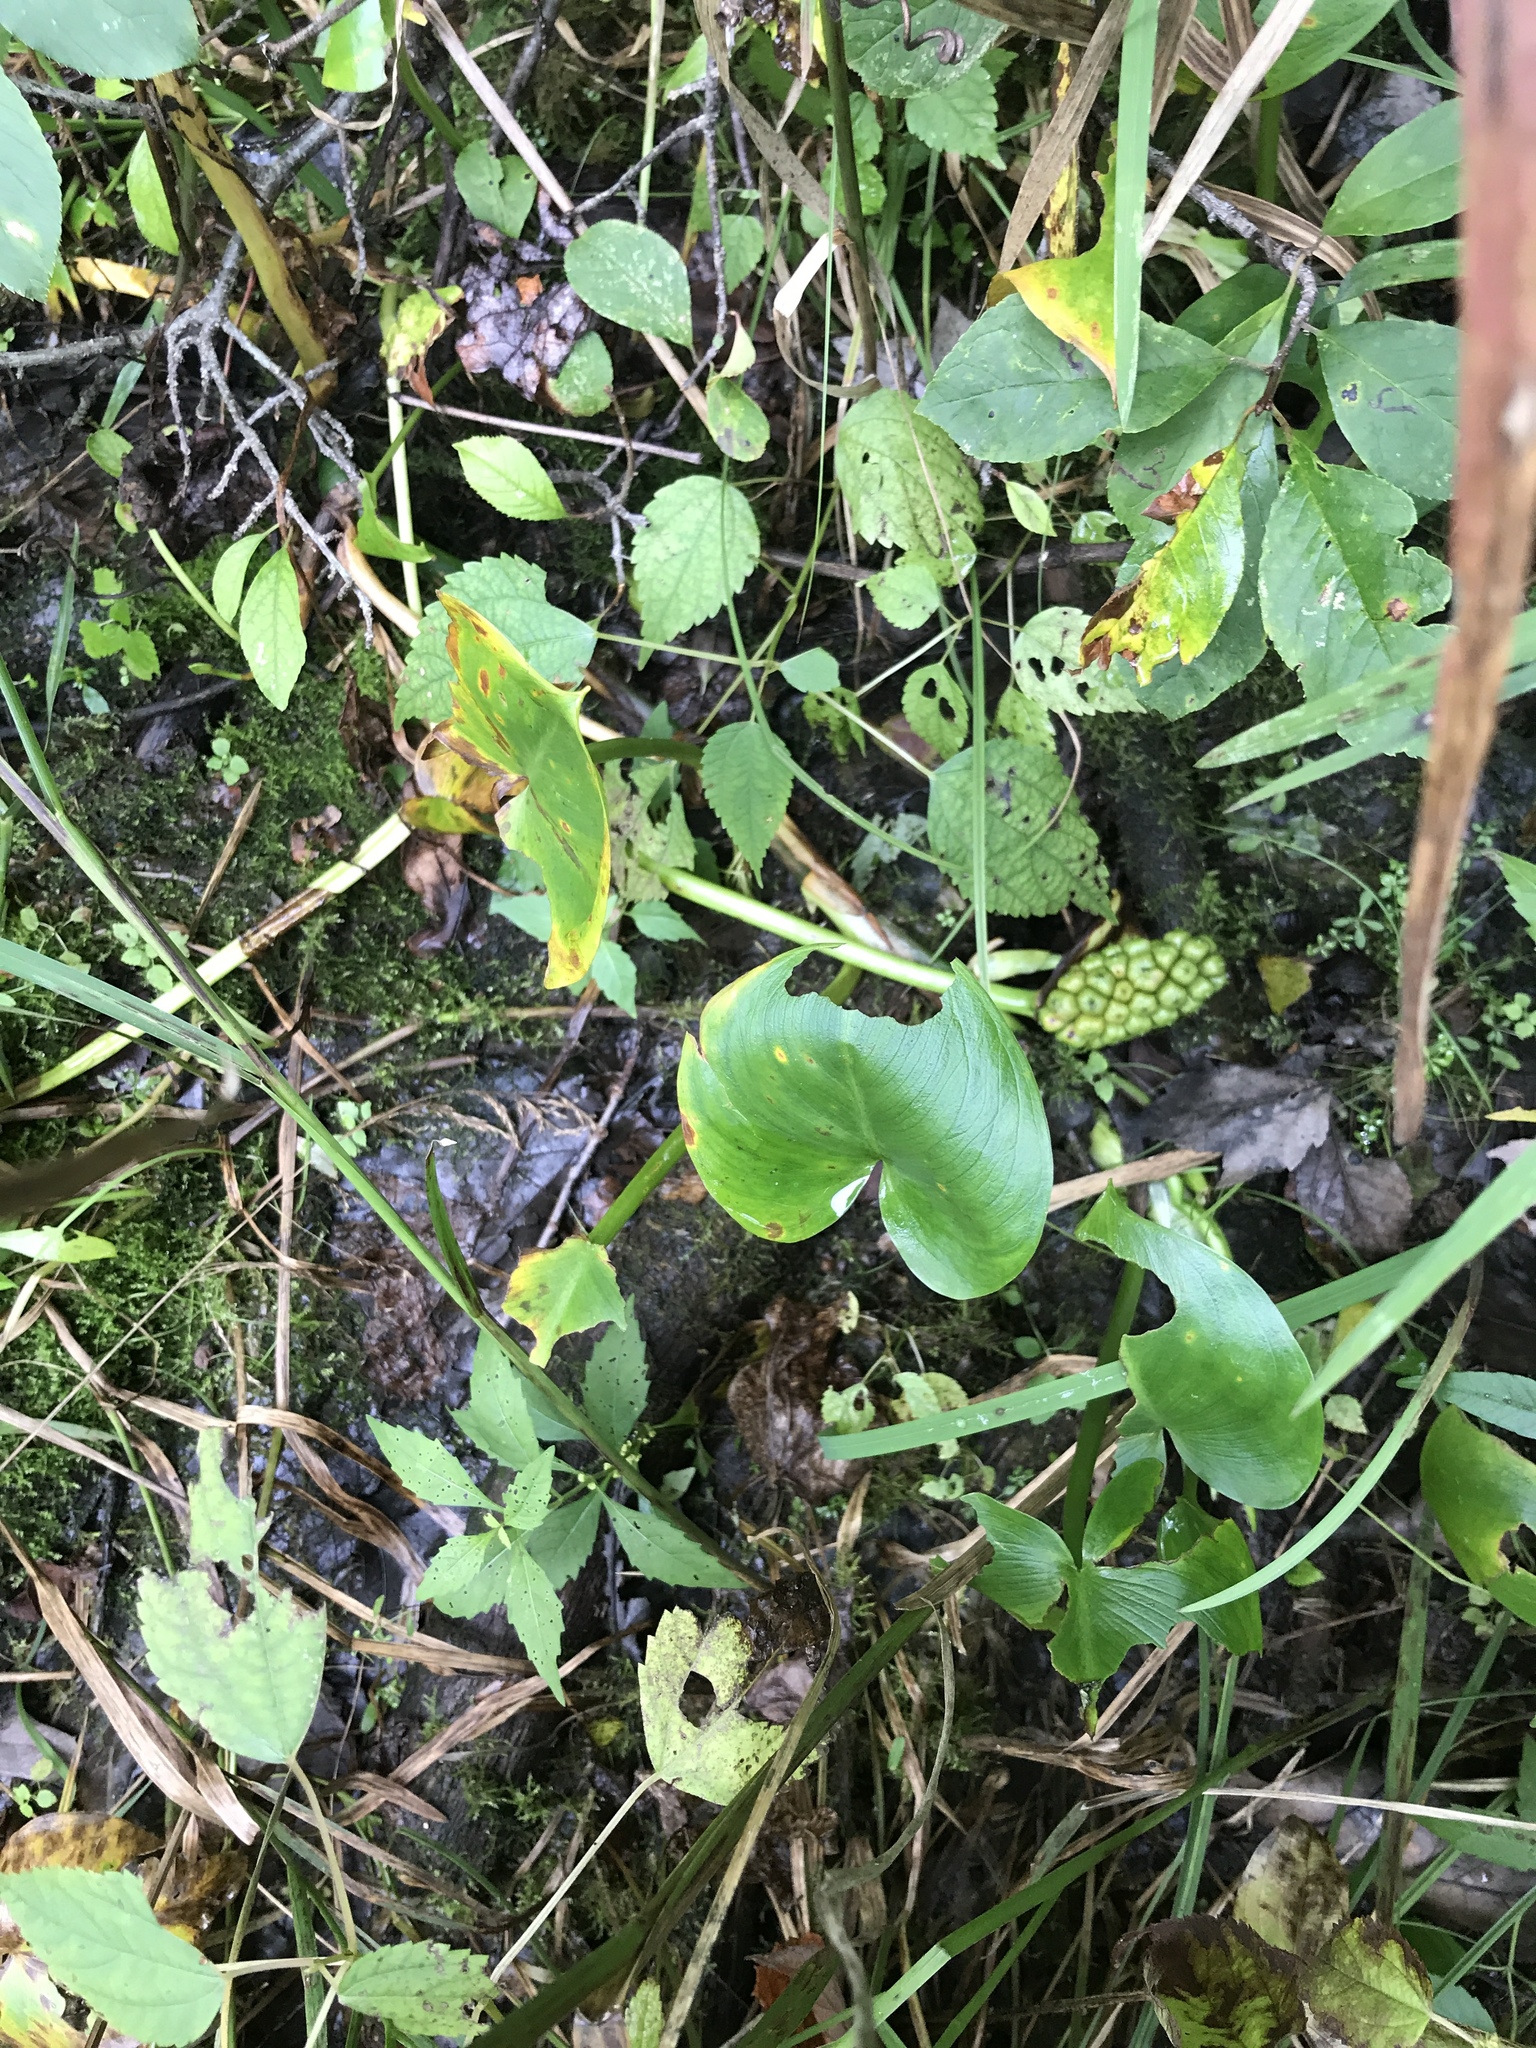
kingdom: Plantae
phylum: Tracheophyta
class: Liliopsida
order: Alismatales
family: Araceae
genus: Calla
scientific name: Calla palustris
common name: Bog arum
